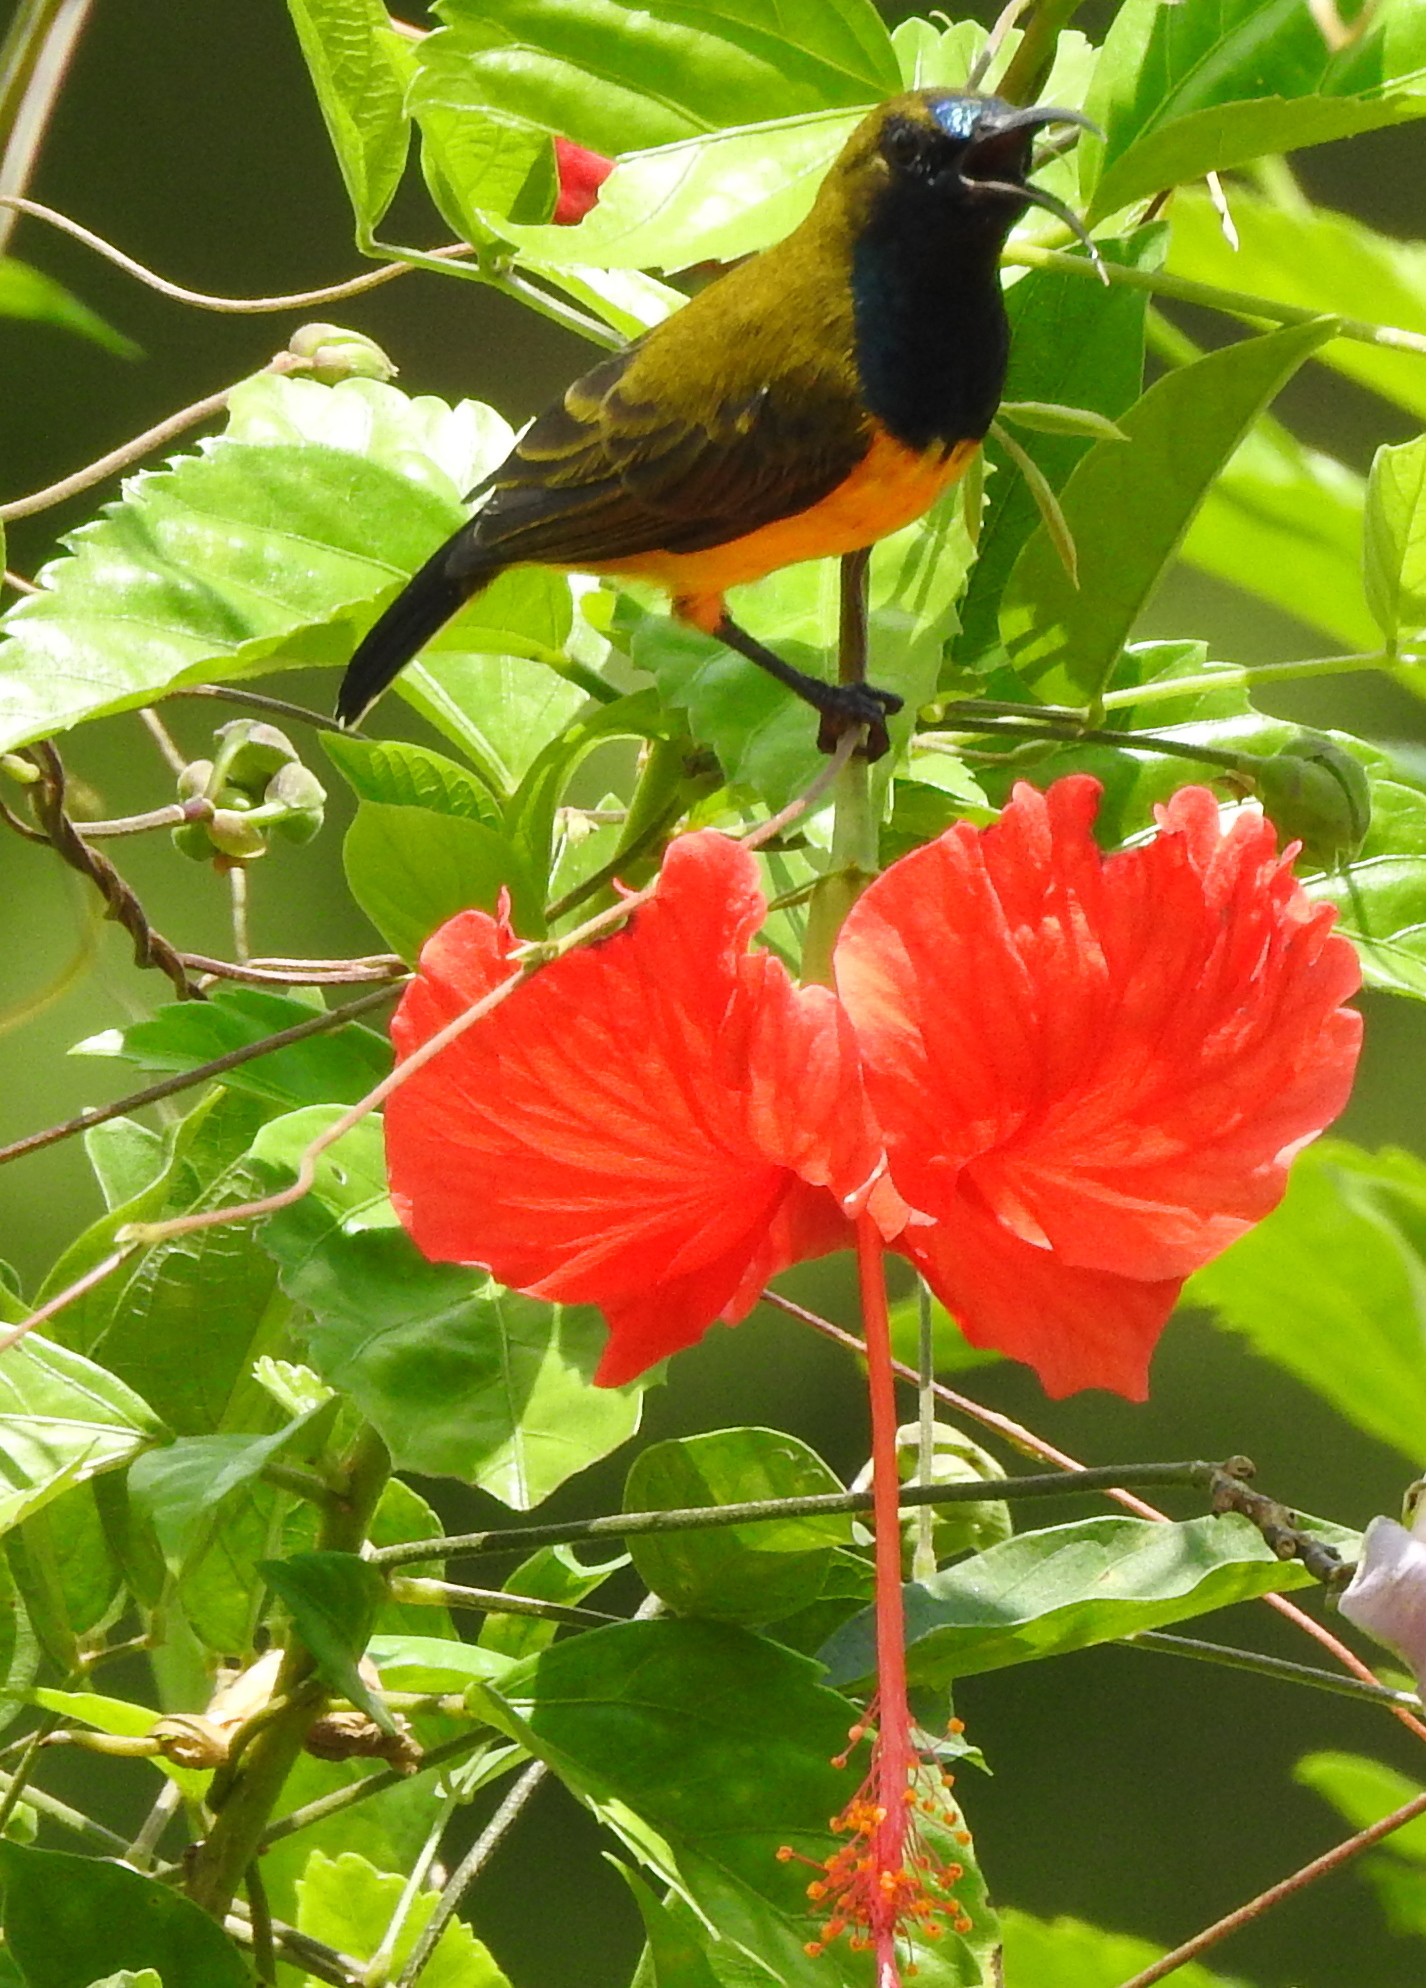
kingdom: Animalia
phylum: Chordata
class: Aves
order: Passeriformes
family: Nectariniidae
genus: Cinnyris
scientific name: Cinnyris
